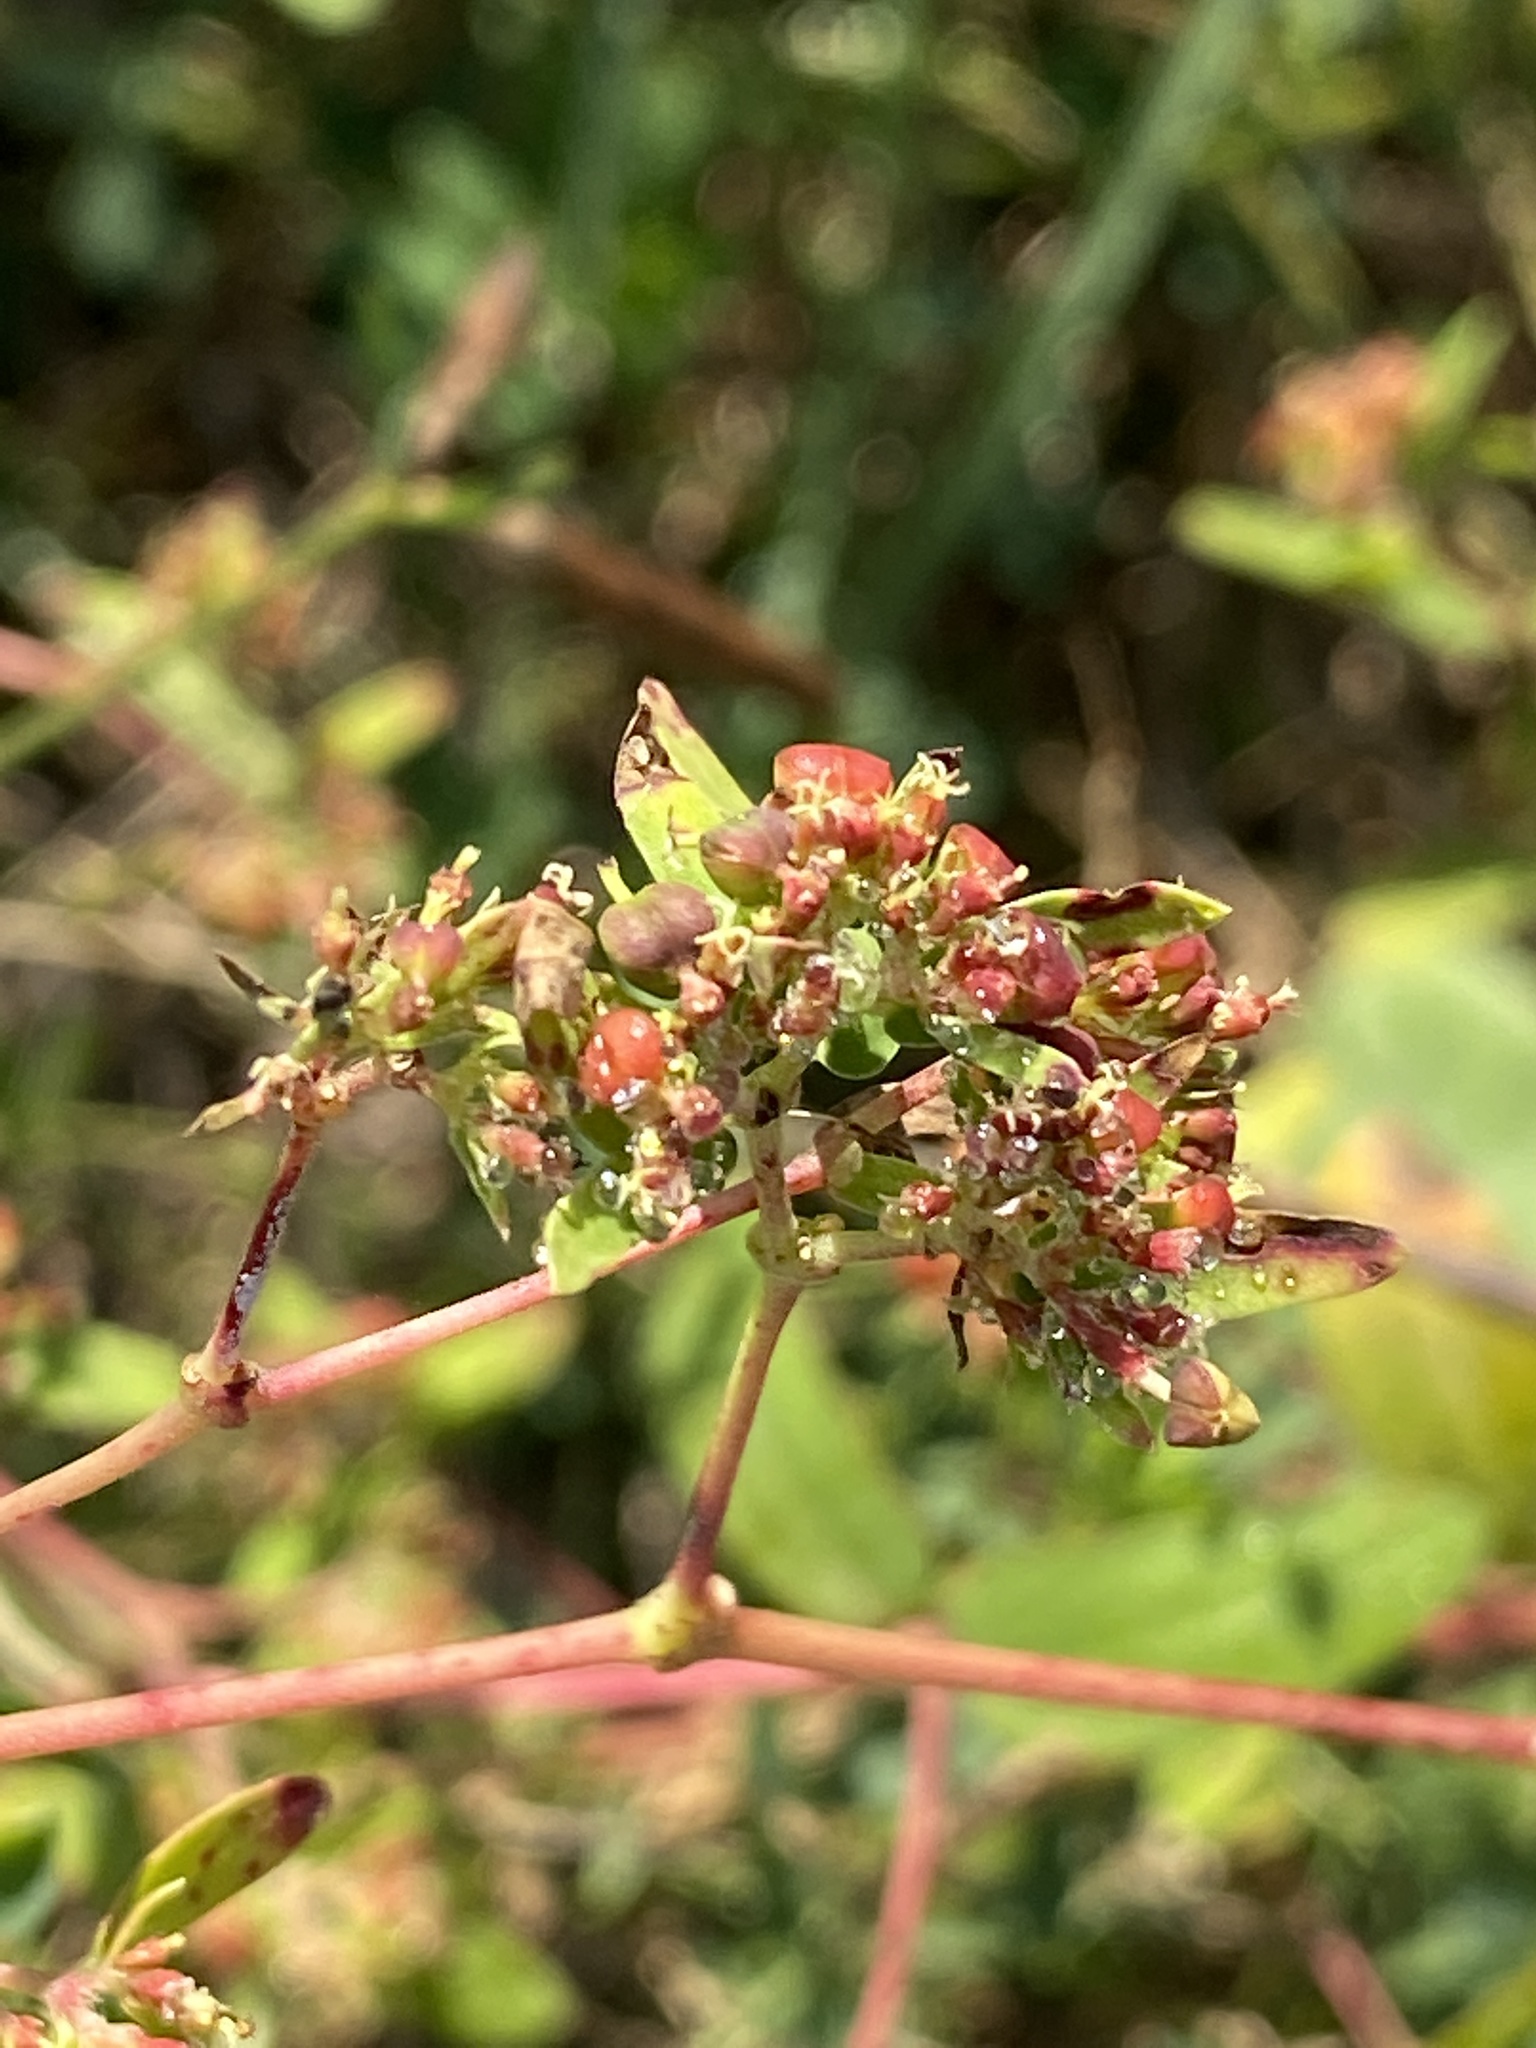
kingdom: Plantae
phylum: Tracheophyta
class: Magnoliopsida
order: Malpighiales
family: Euphorbiaceae
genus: Euphorbia
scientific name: Euphorbia nutans
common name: Eyebane
